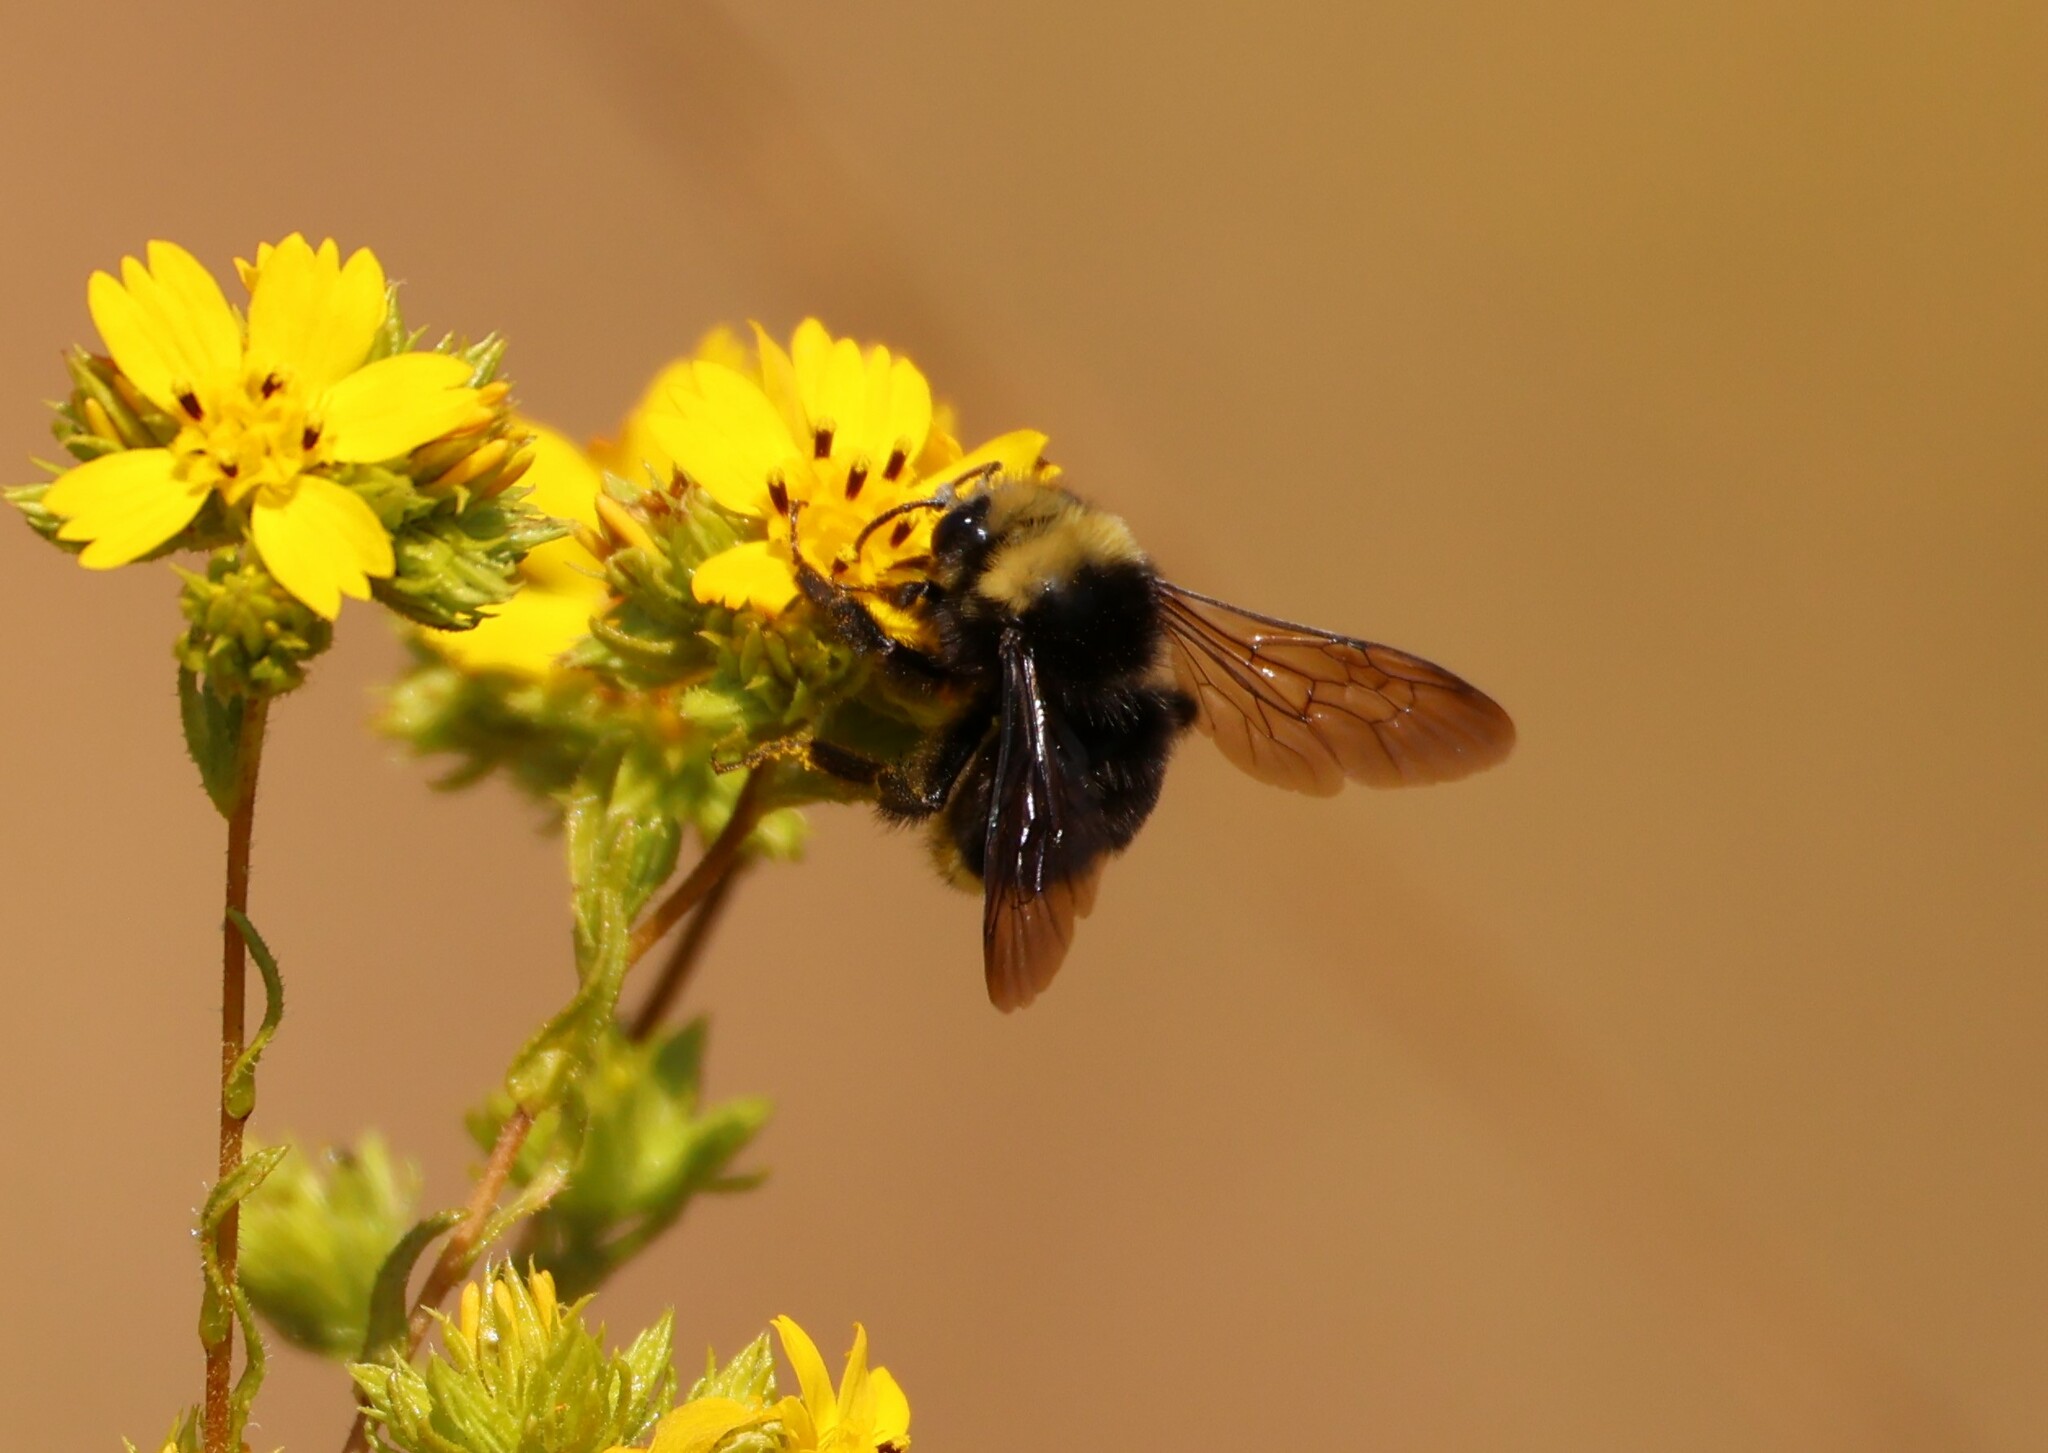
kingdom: Animalia
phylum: Arthropoda
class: Insecta
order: Hymenoptera
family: Apidae
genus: Bombus
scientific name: Bombus vosnesenskii
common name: Vosnesensky bumble bee
